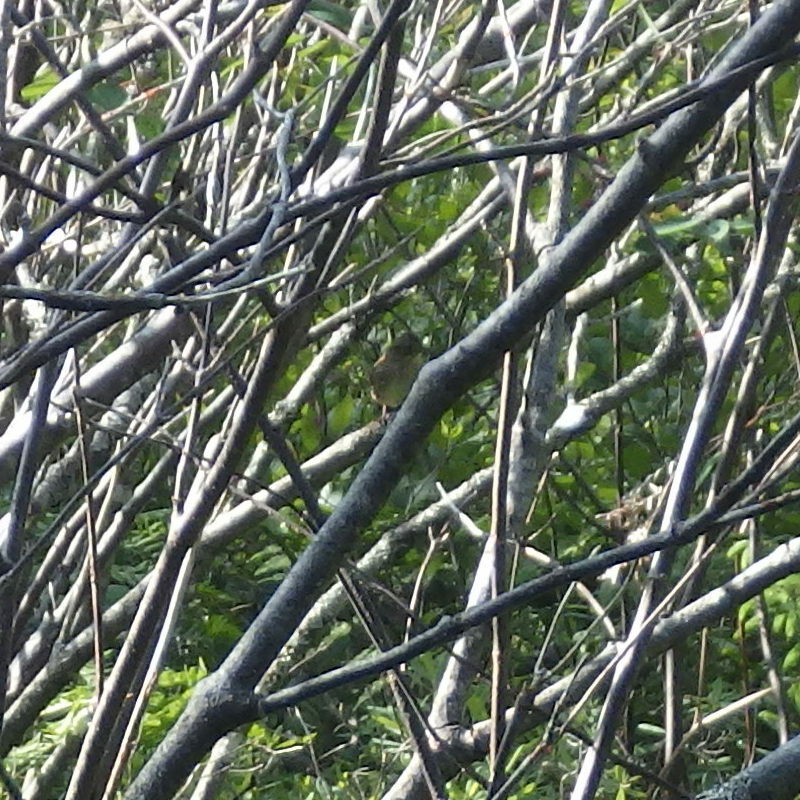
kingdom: Animalia
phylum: Chordata
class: Aves
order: Passeriformes
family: Passerellidae
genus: Melospiza
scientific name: Melospiza lincolnii
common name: Lincoln's sparrow
